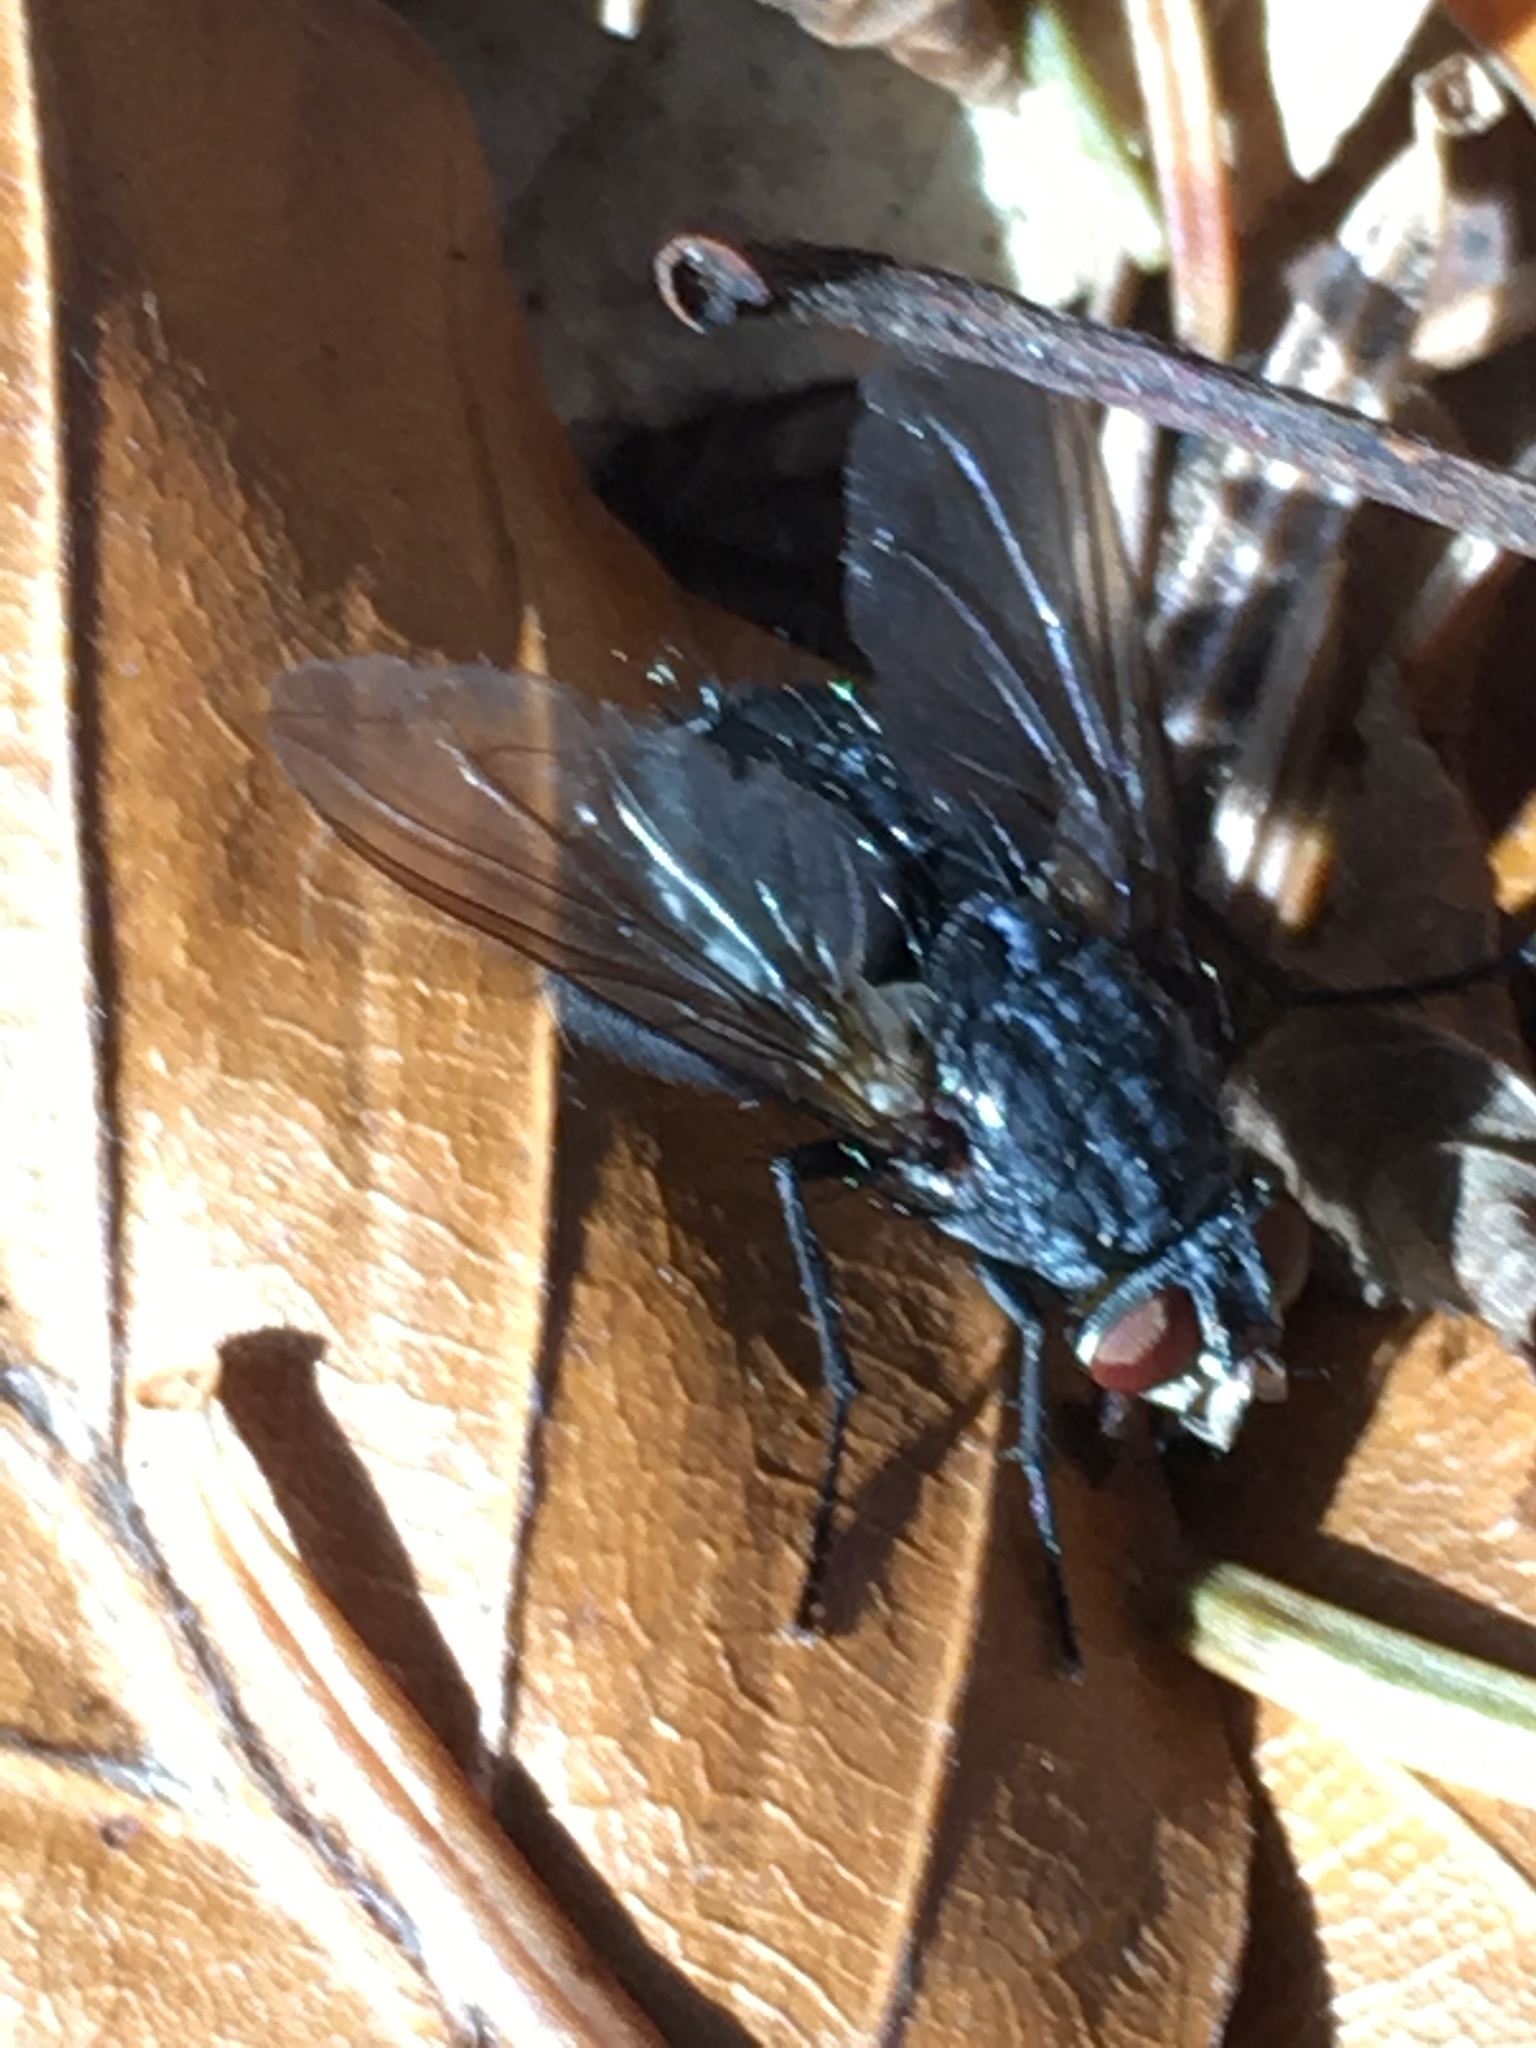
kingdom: Animalia
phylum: Arthropoda
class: Insecta
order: Diptera
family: Calliphoridae
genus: Calliphora
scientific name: Calliphora vicina
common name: Common blow flie
